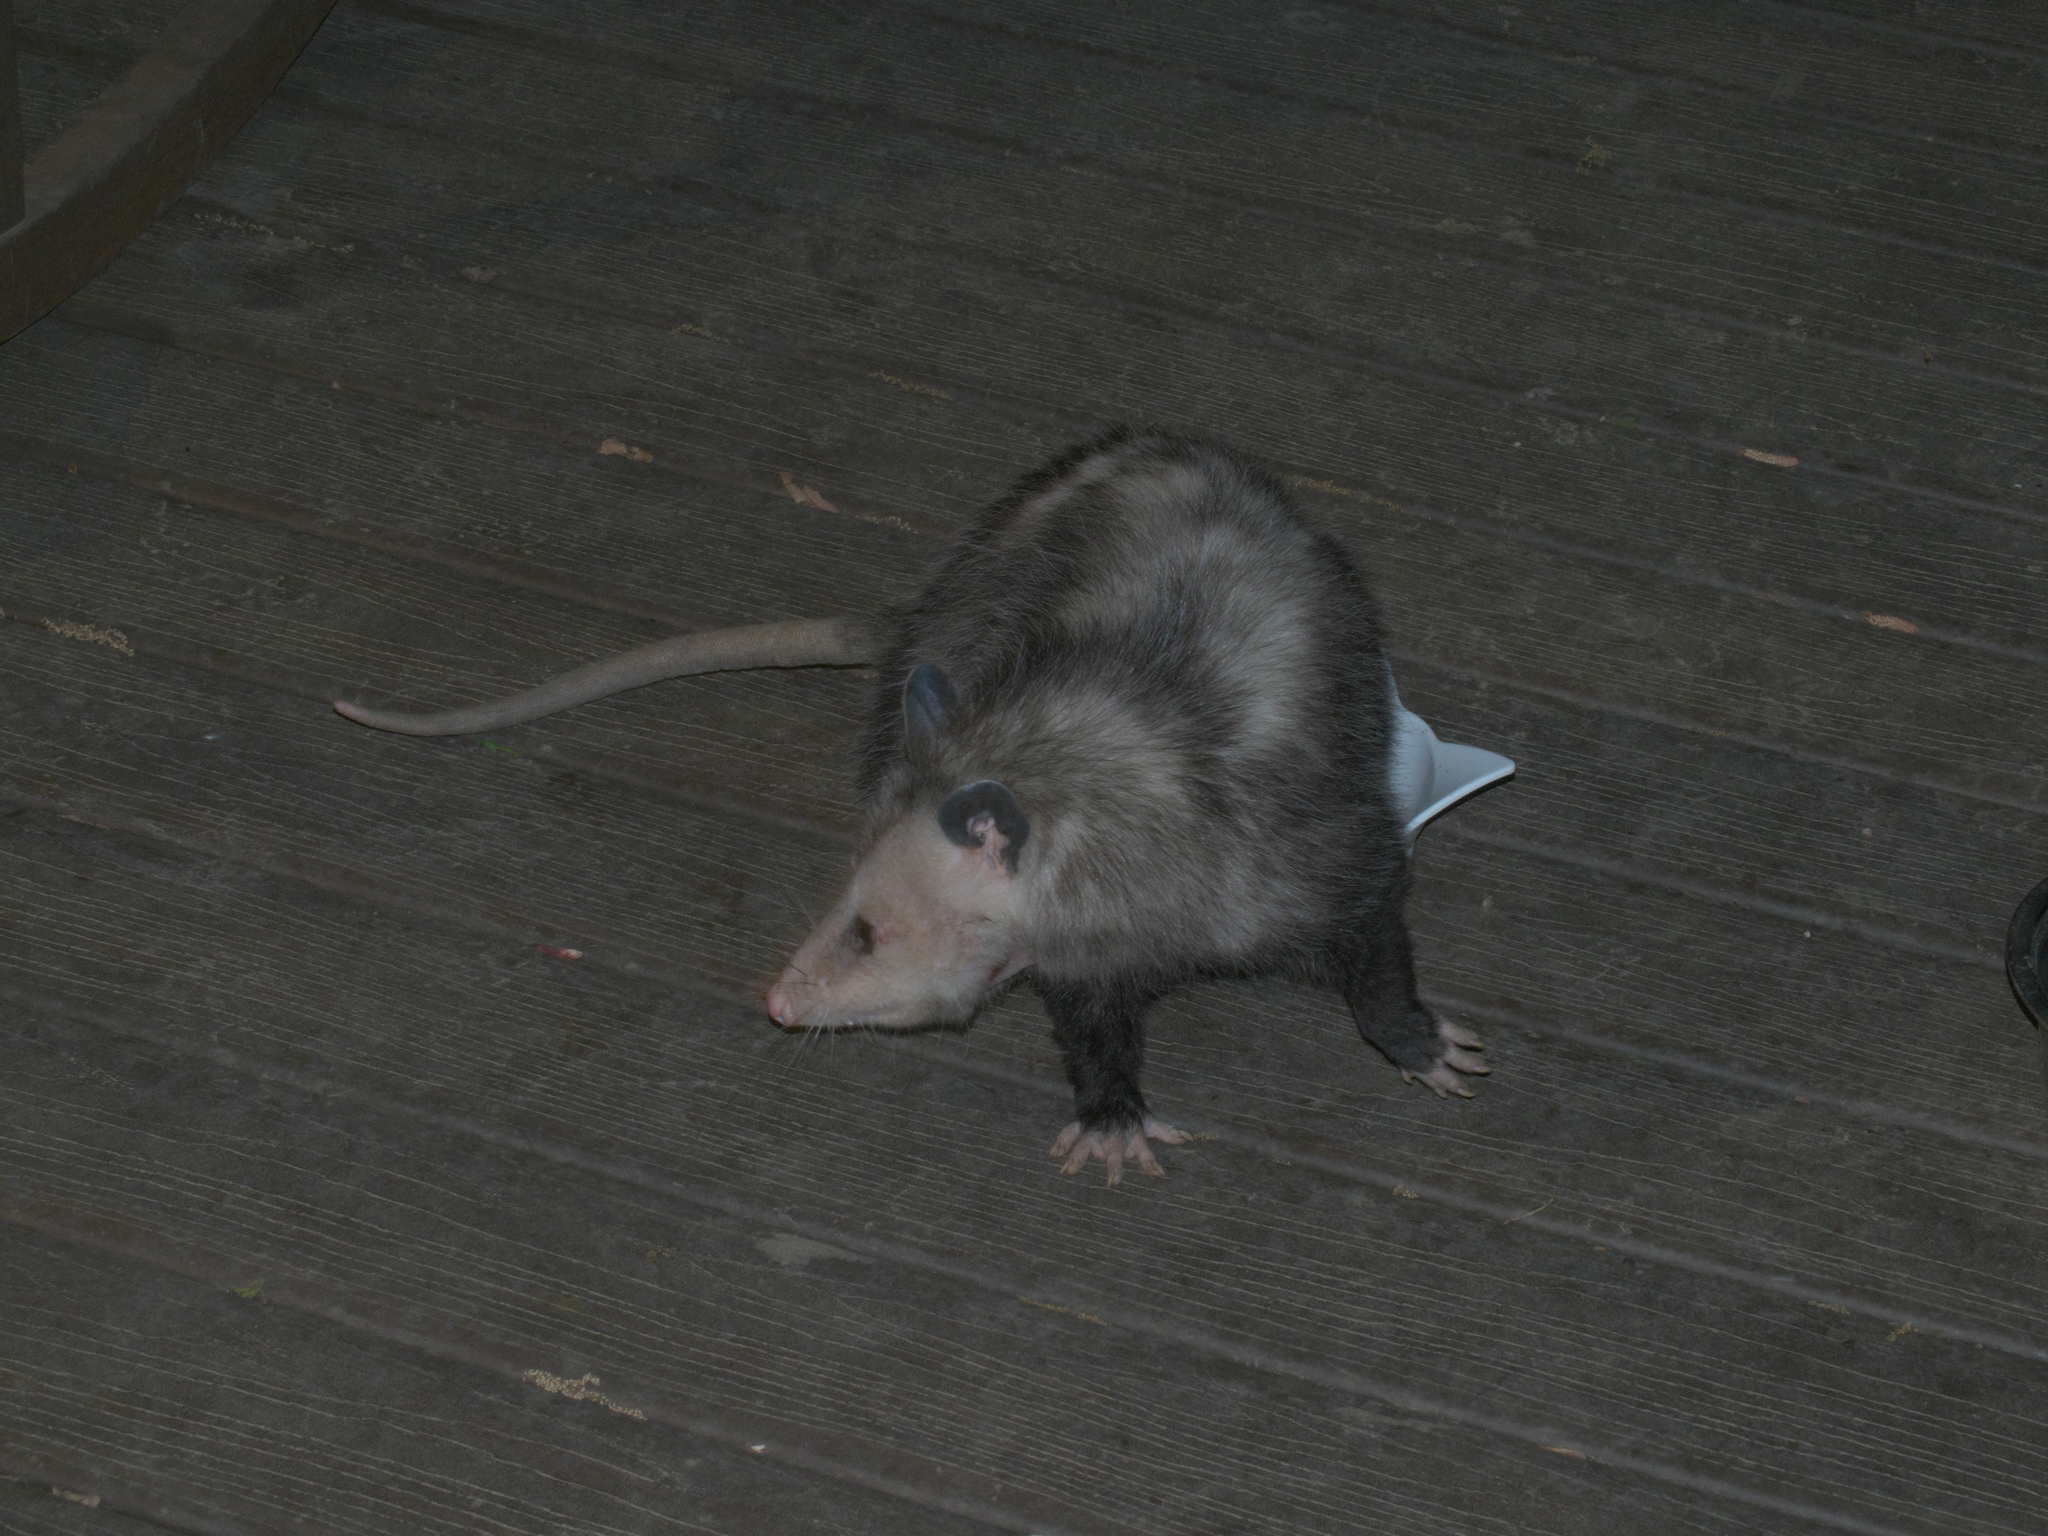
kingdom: Animalia
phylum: Chordata
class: Mammalia
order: Didelphimorphia
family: Didelphidae
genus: Didelphis
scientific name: Didelphis virginiana
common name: Virginia opossum
